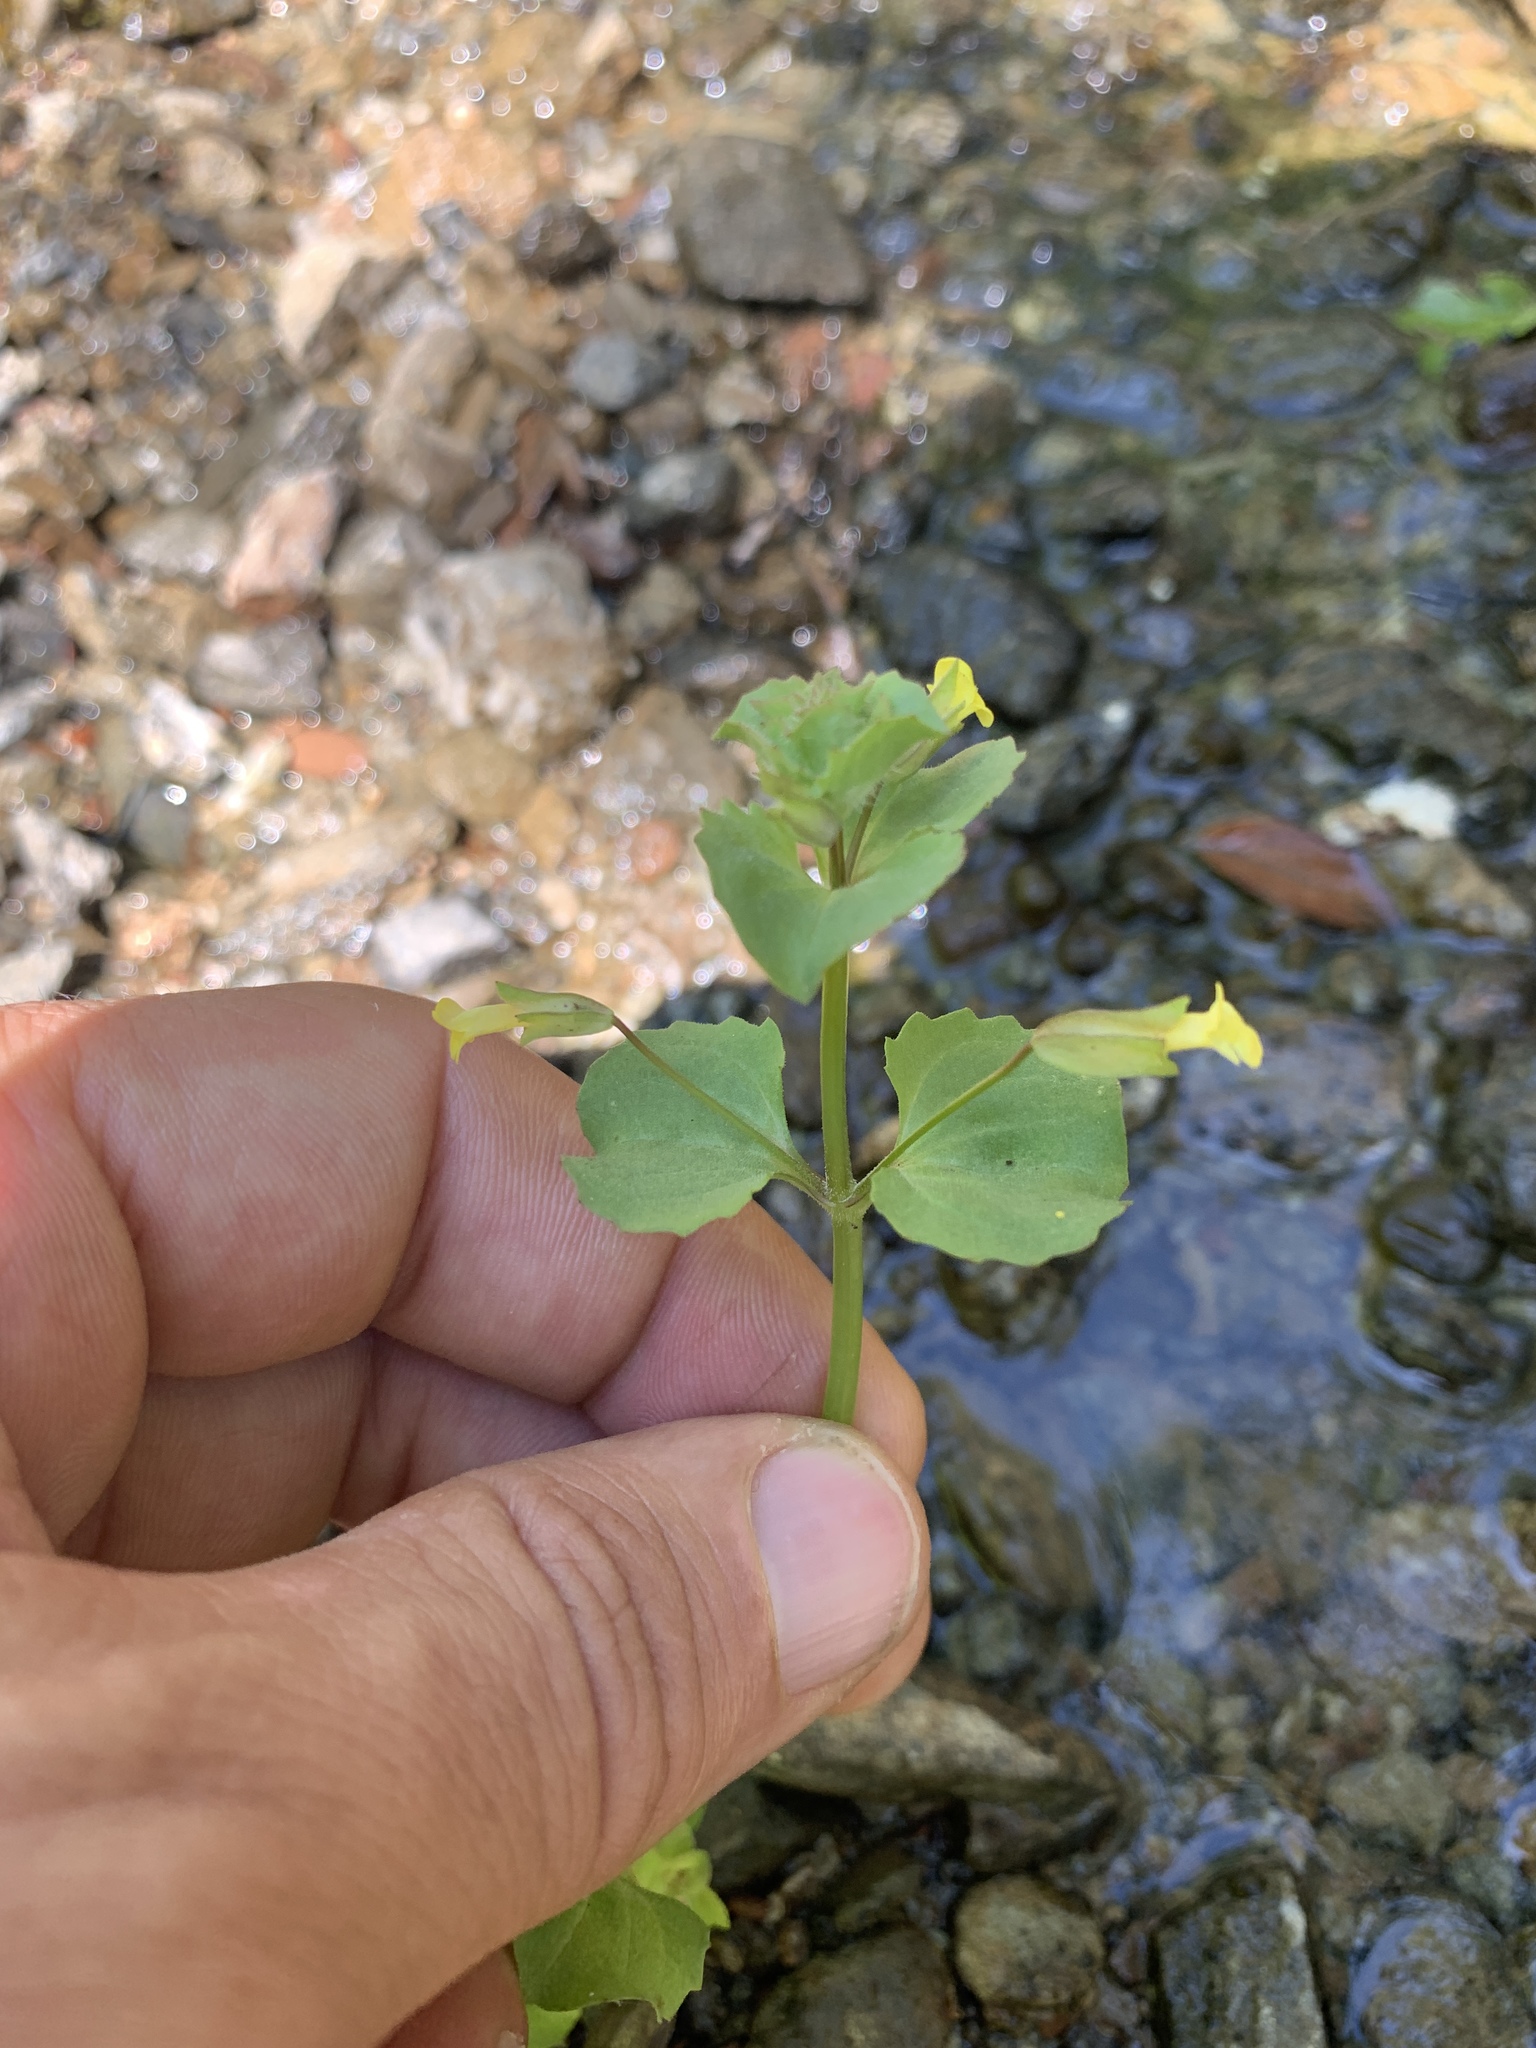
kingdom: Plantae
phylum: Tracheophyta
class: Magnoliopsida
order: Lamiales
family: Phrymaceae
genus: Erythranthe
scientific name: Erythranthe arvensis
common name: Field monkeyflower
